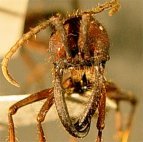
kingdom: Animalia
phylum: Arthropoda
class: Insecta
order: Hymenoptera
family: Formicidae
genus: Eciton
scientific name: Eciton vagans
